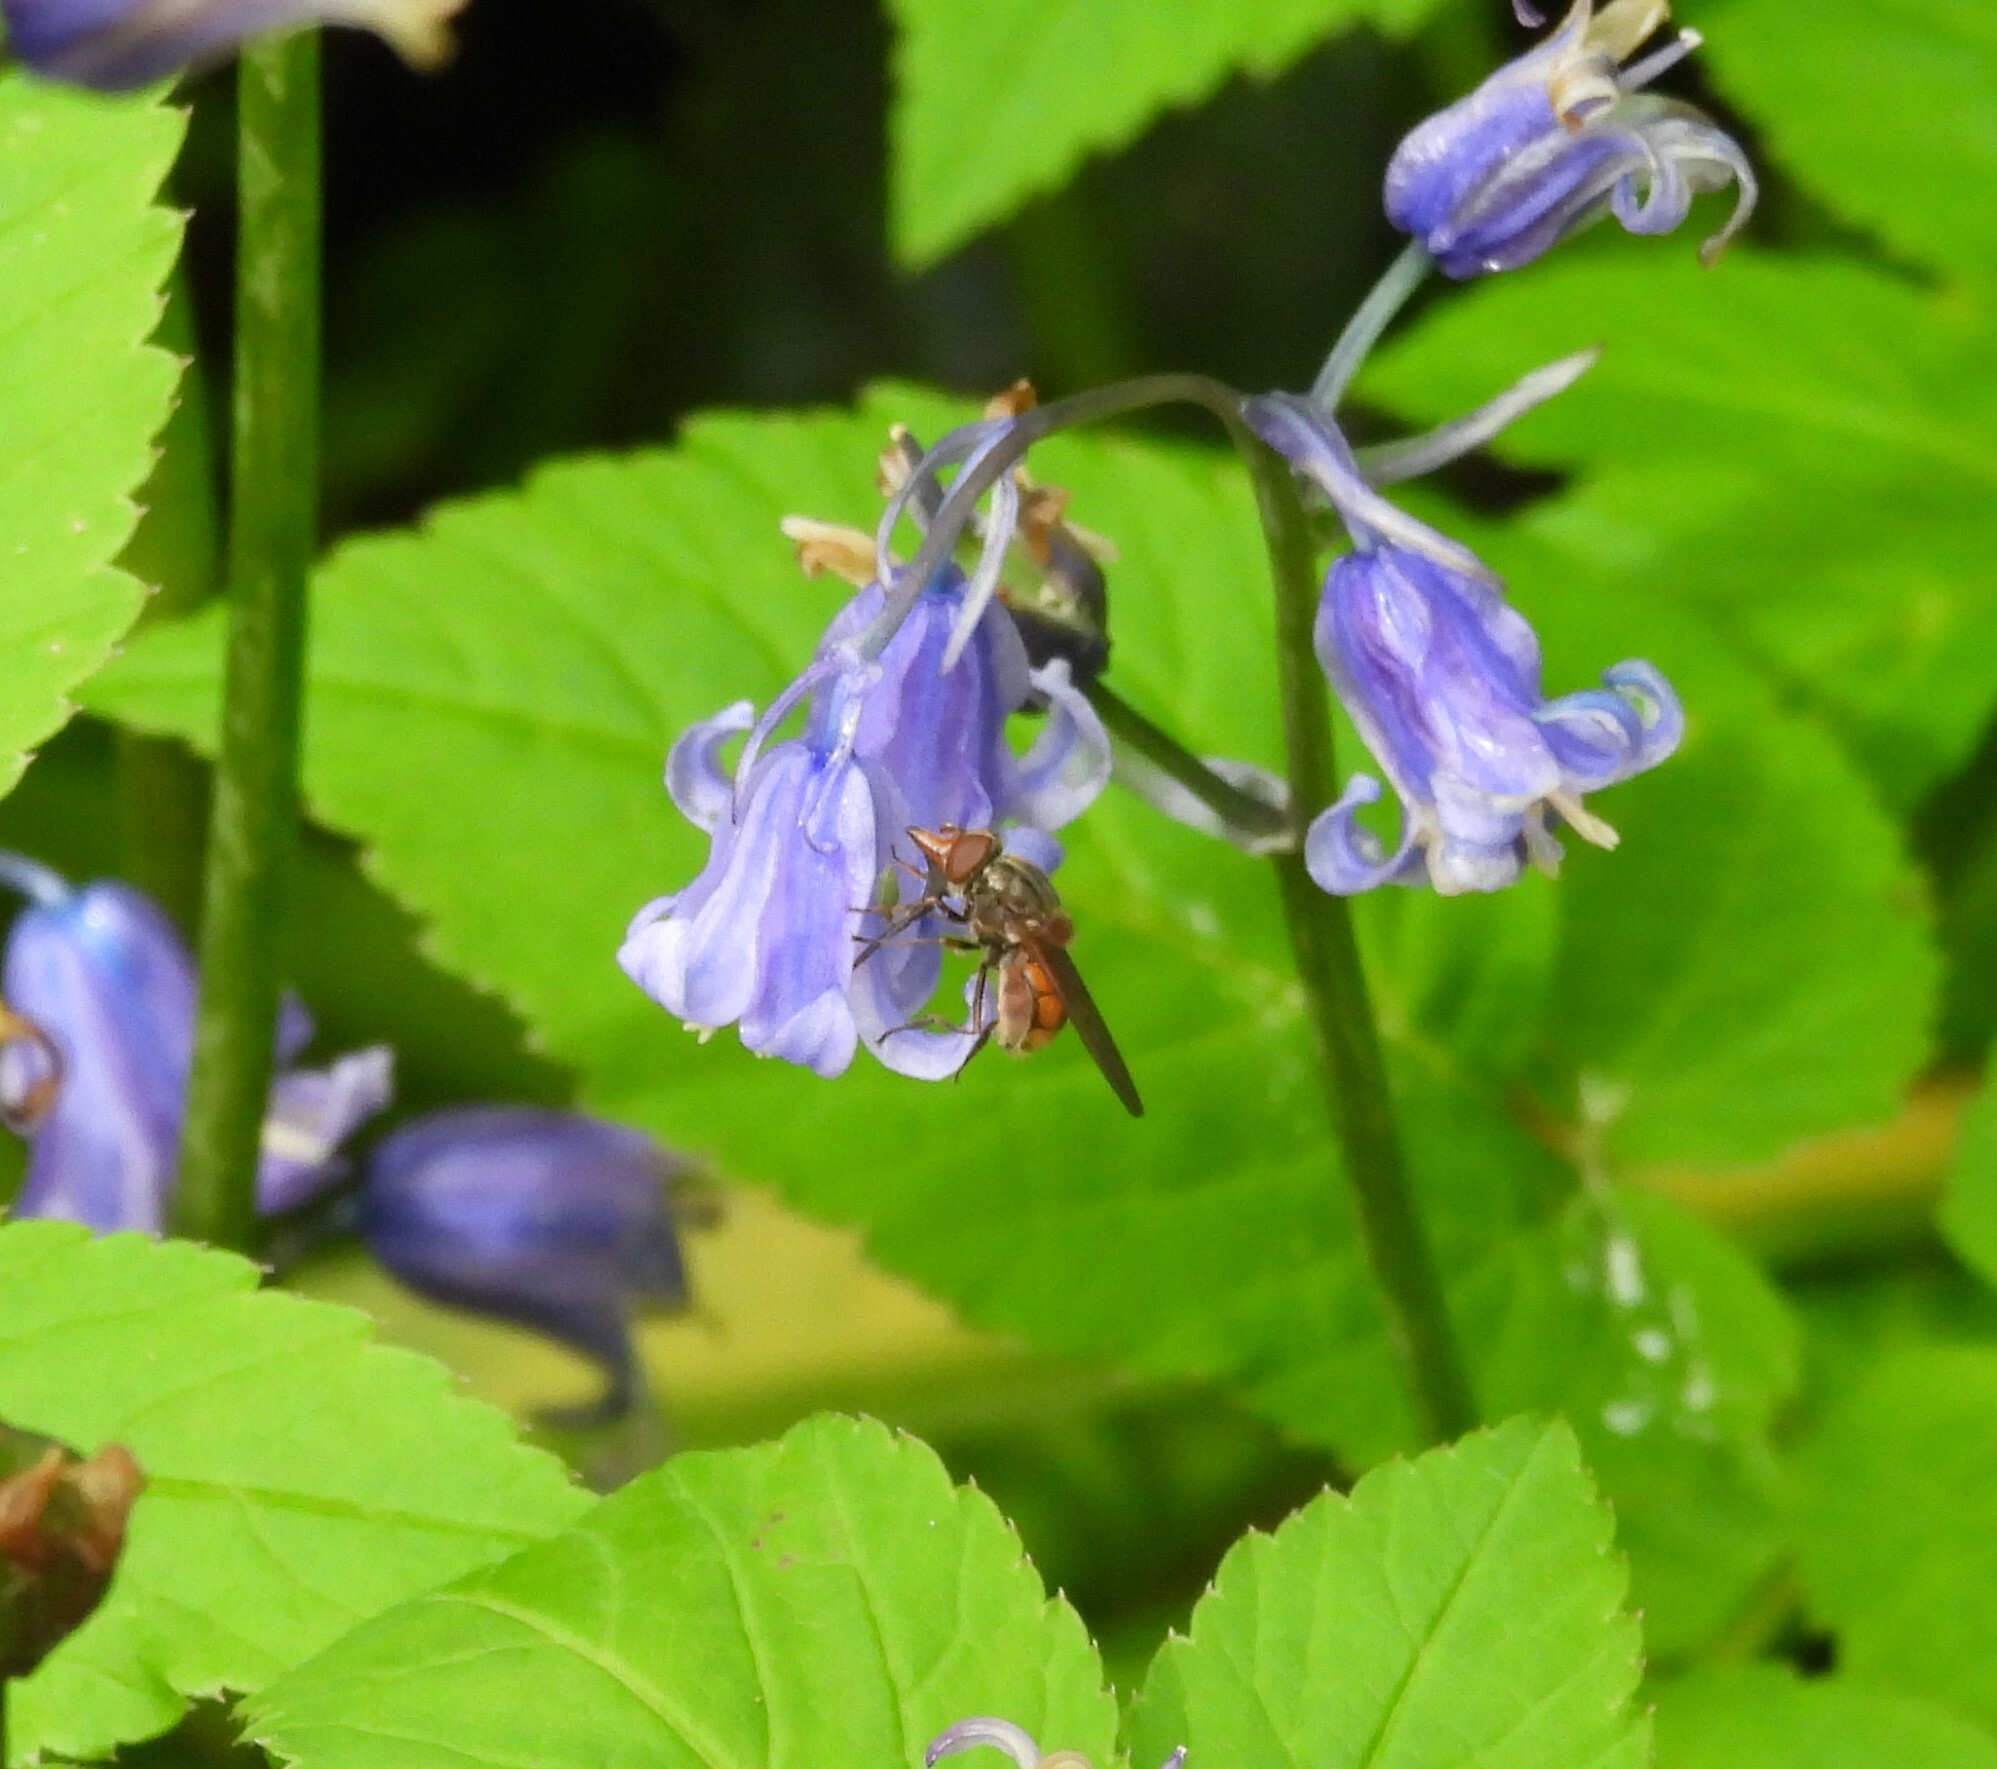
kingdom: Animalia
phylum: Arthropoda
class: Insecta
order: Diptera
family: Syrphidae
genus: Rhingia
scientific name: Rhingia campestris
